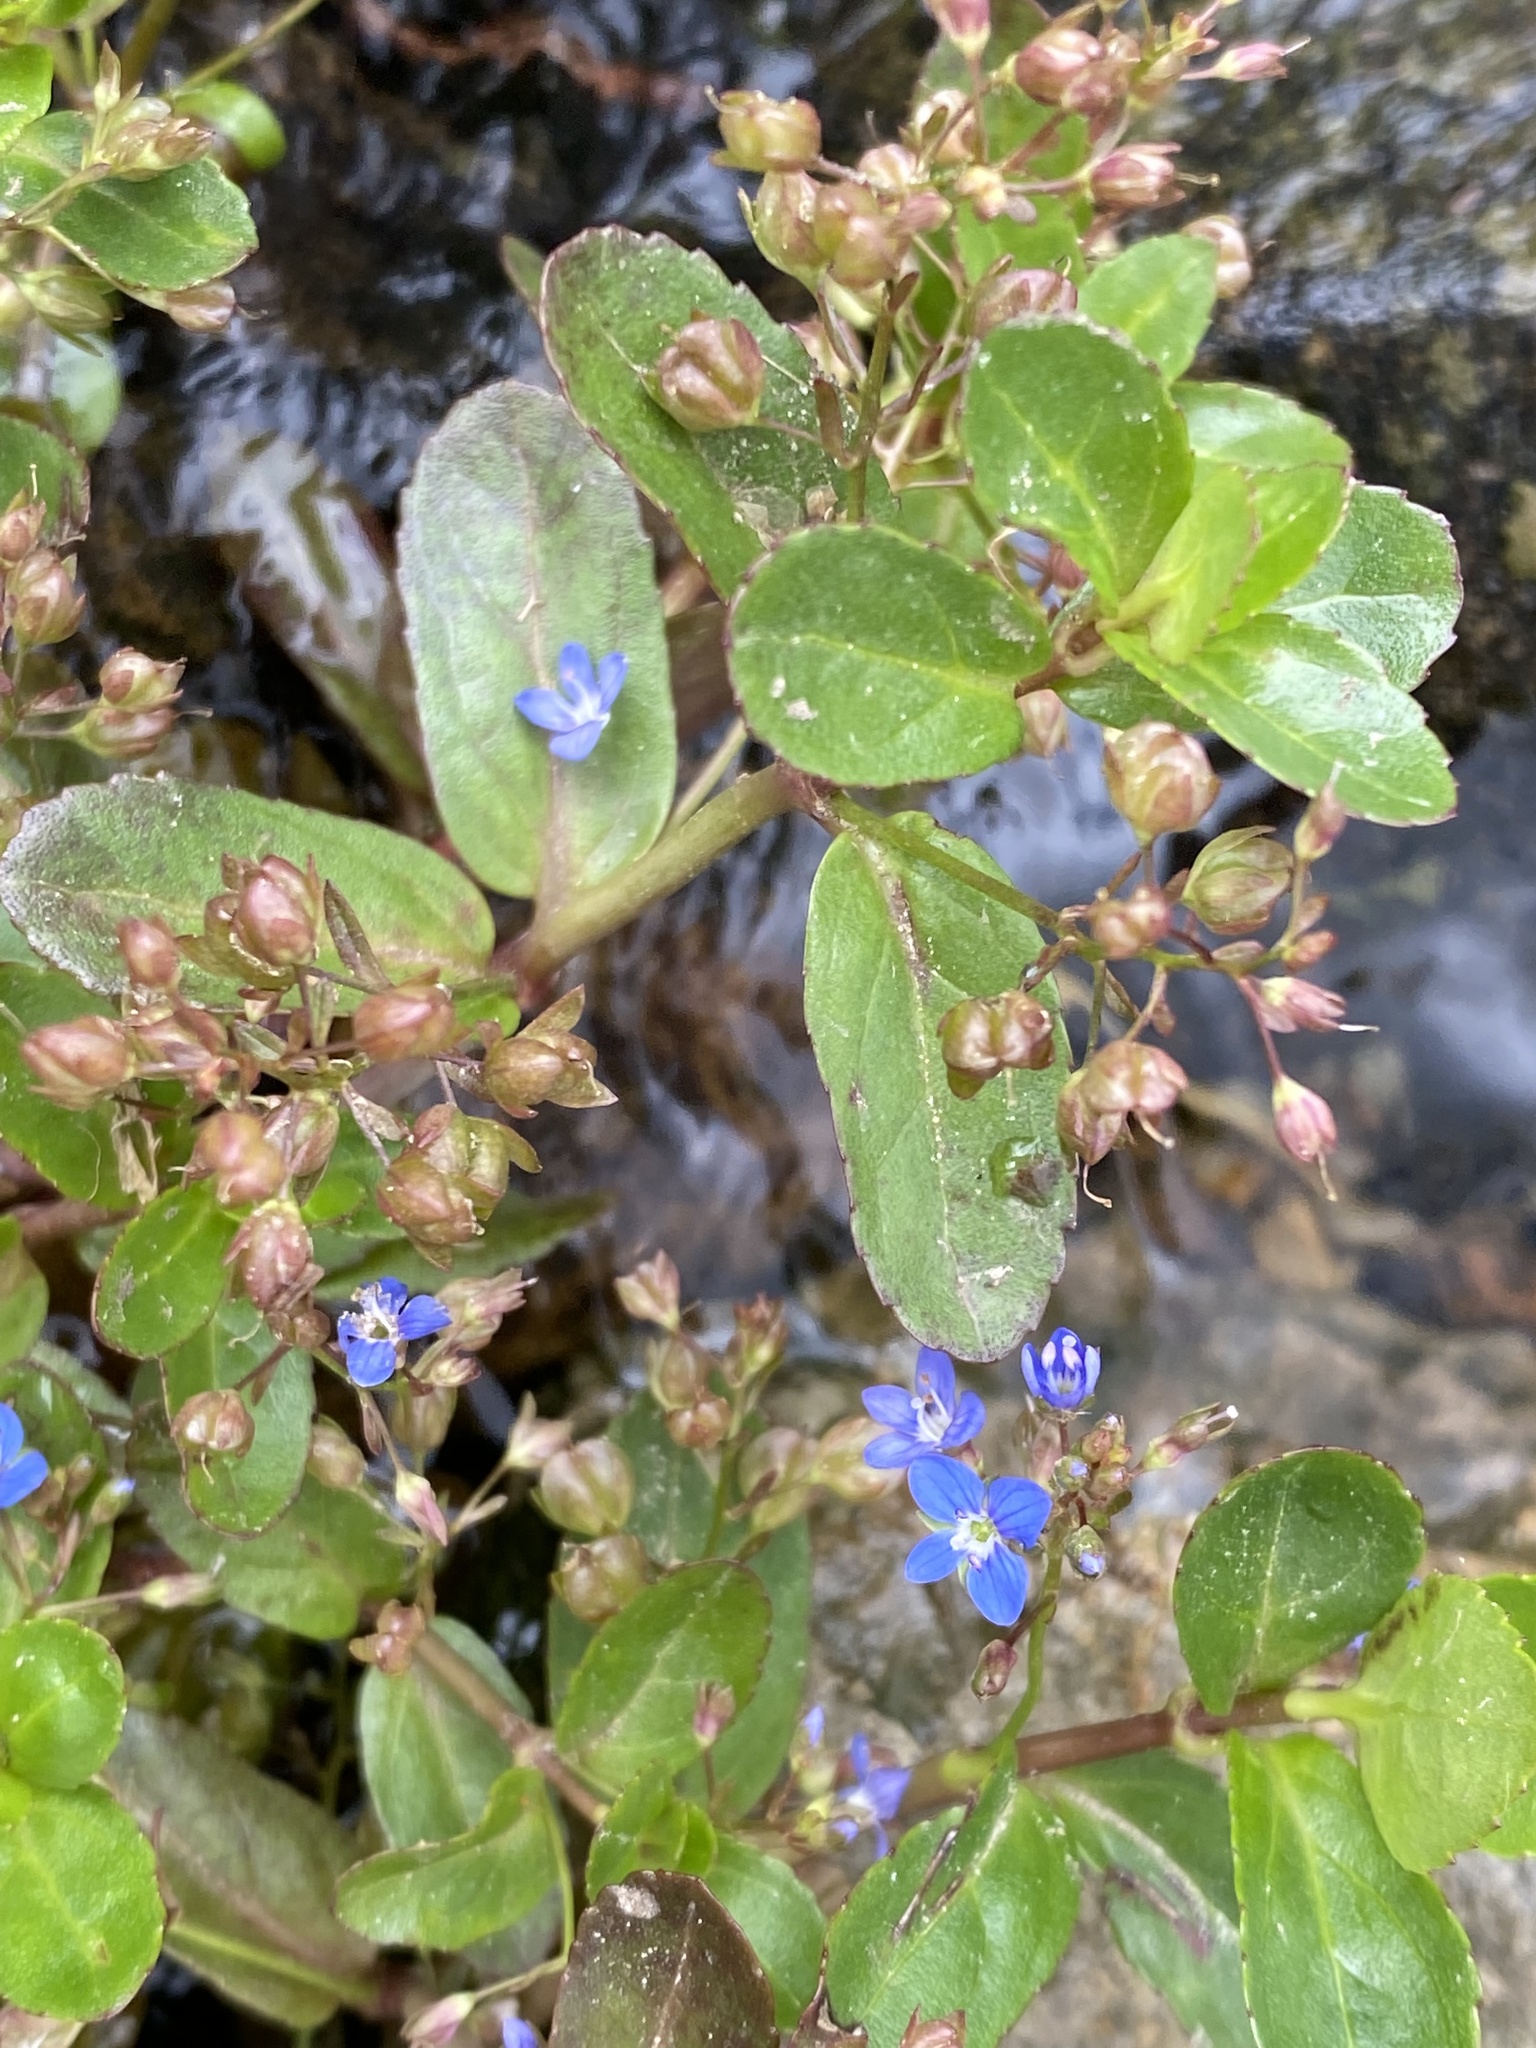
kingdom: Plantae
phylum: Tracheophyta
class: Magnoliopsida
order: Lamiales
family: Plantaginaceae
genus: Veronica
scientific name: Veronica beccabunga
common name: Brooklime
